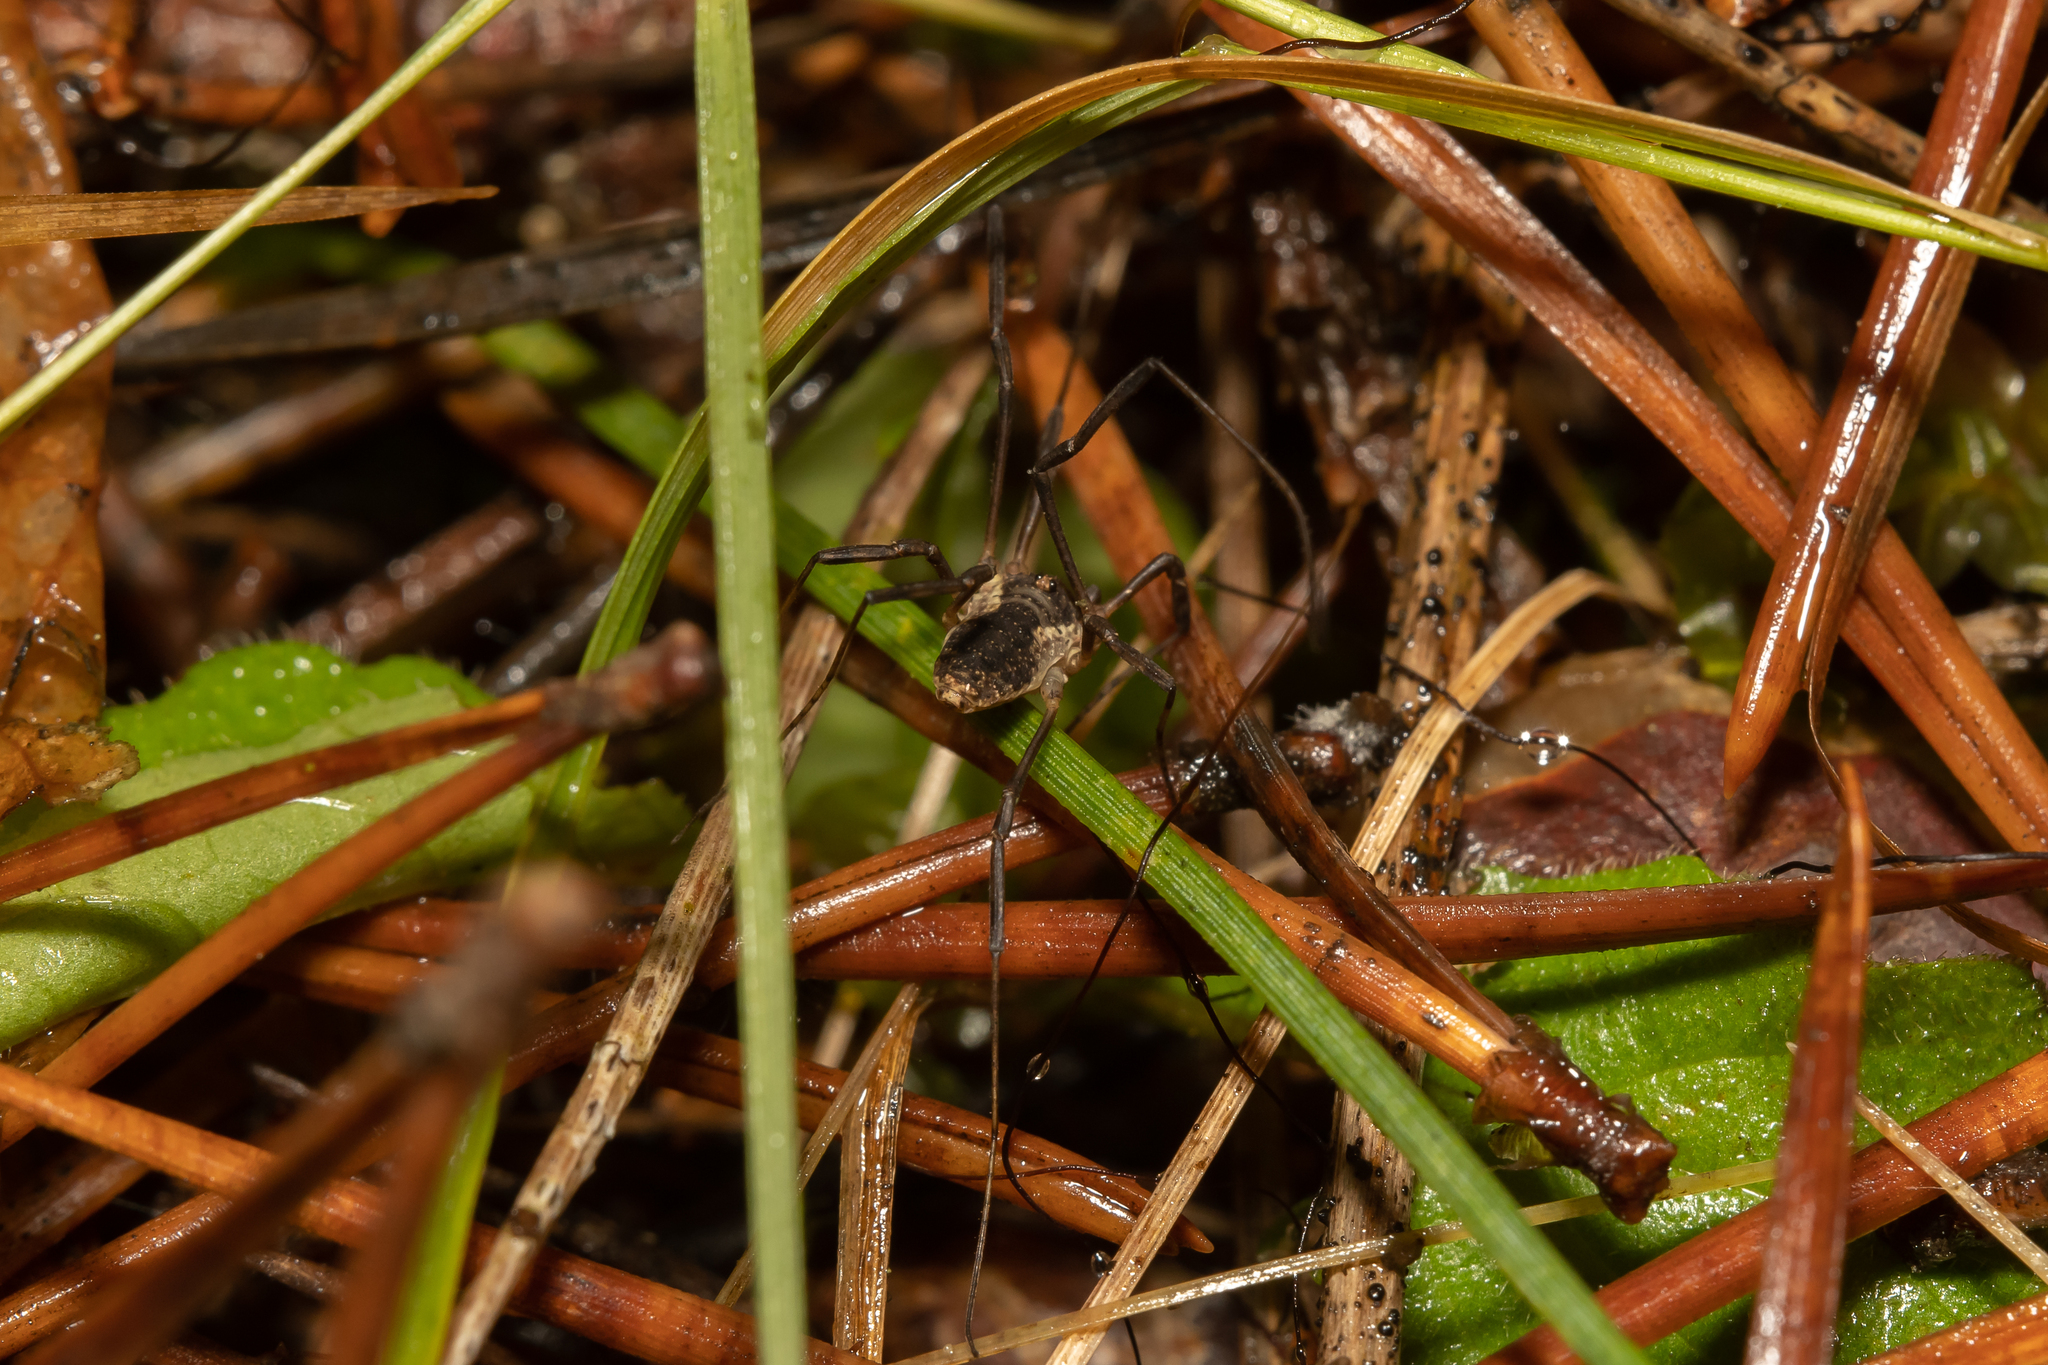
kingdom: Animalia
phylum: Arthropoda
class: Arachnida
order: Opiliones
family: Phalangiidae
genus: Oligolophus
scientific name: Oligolophus tridens
